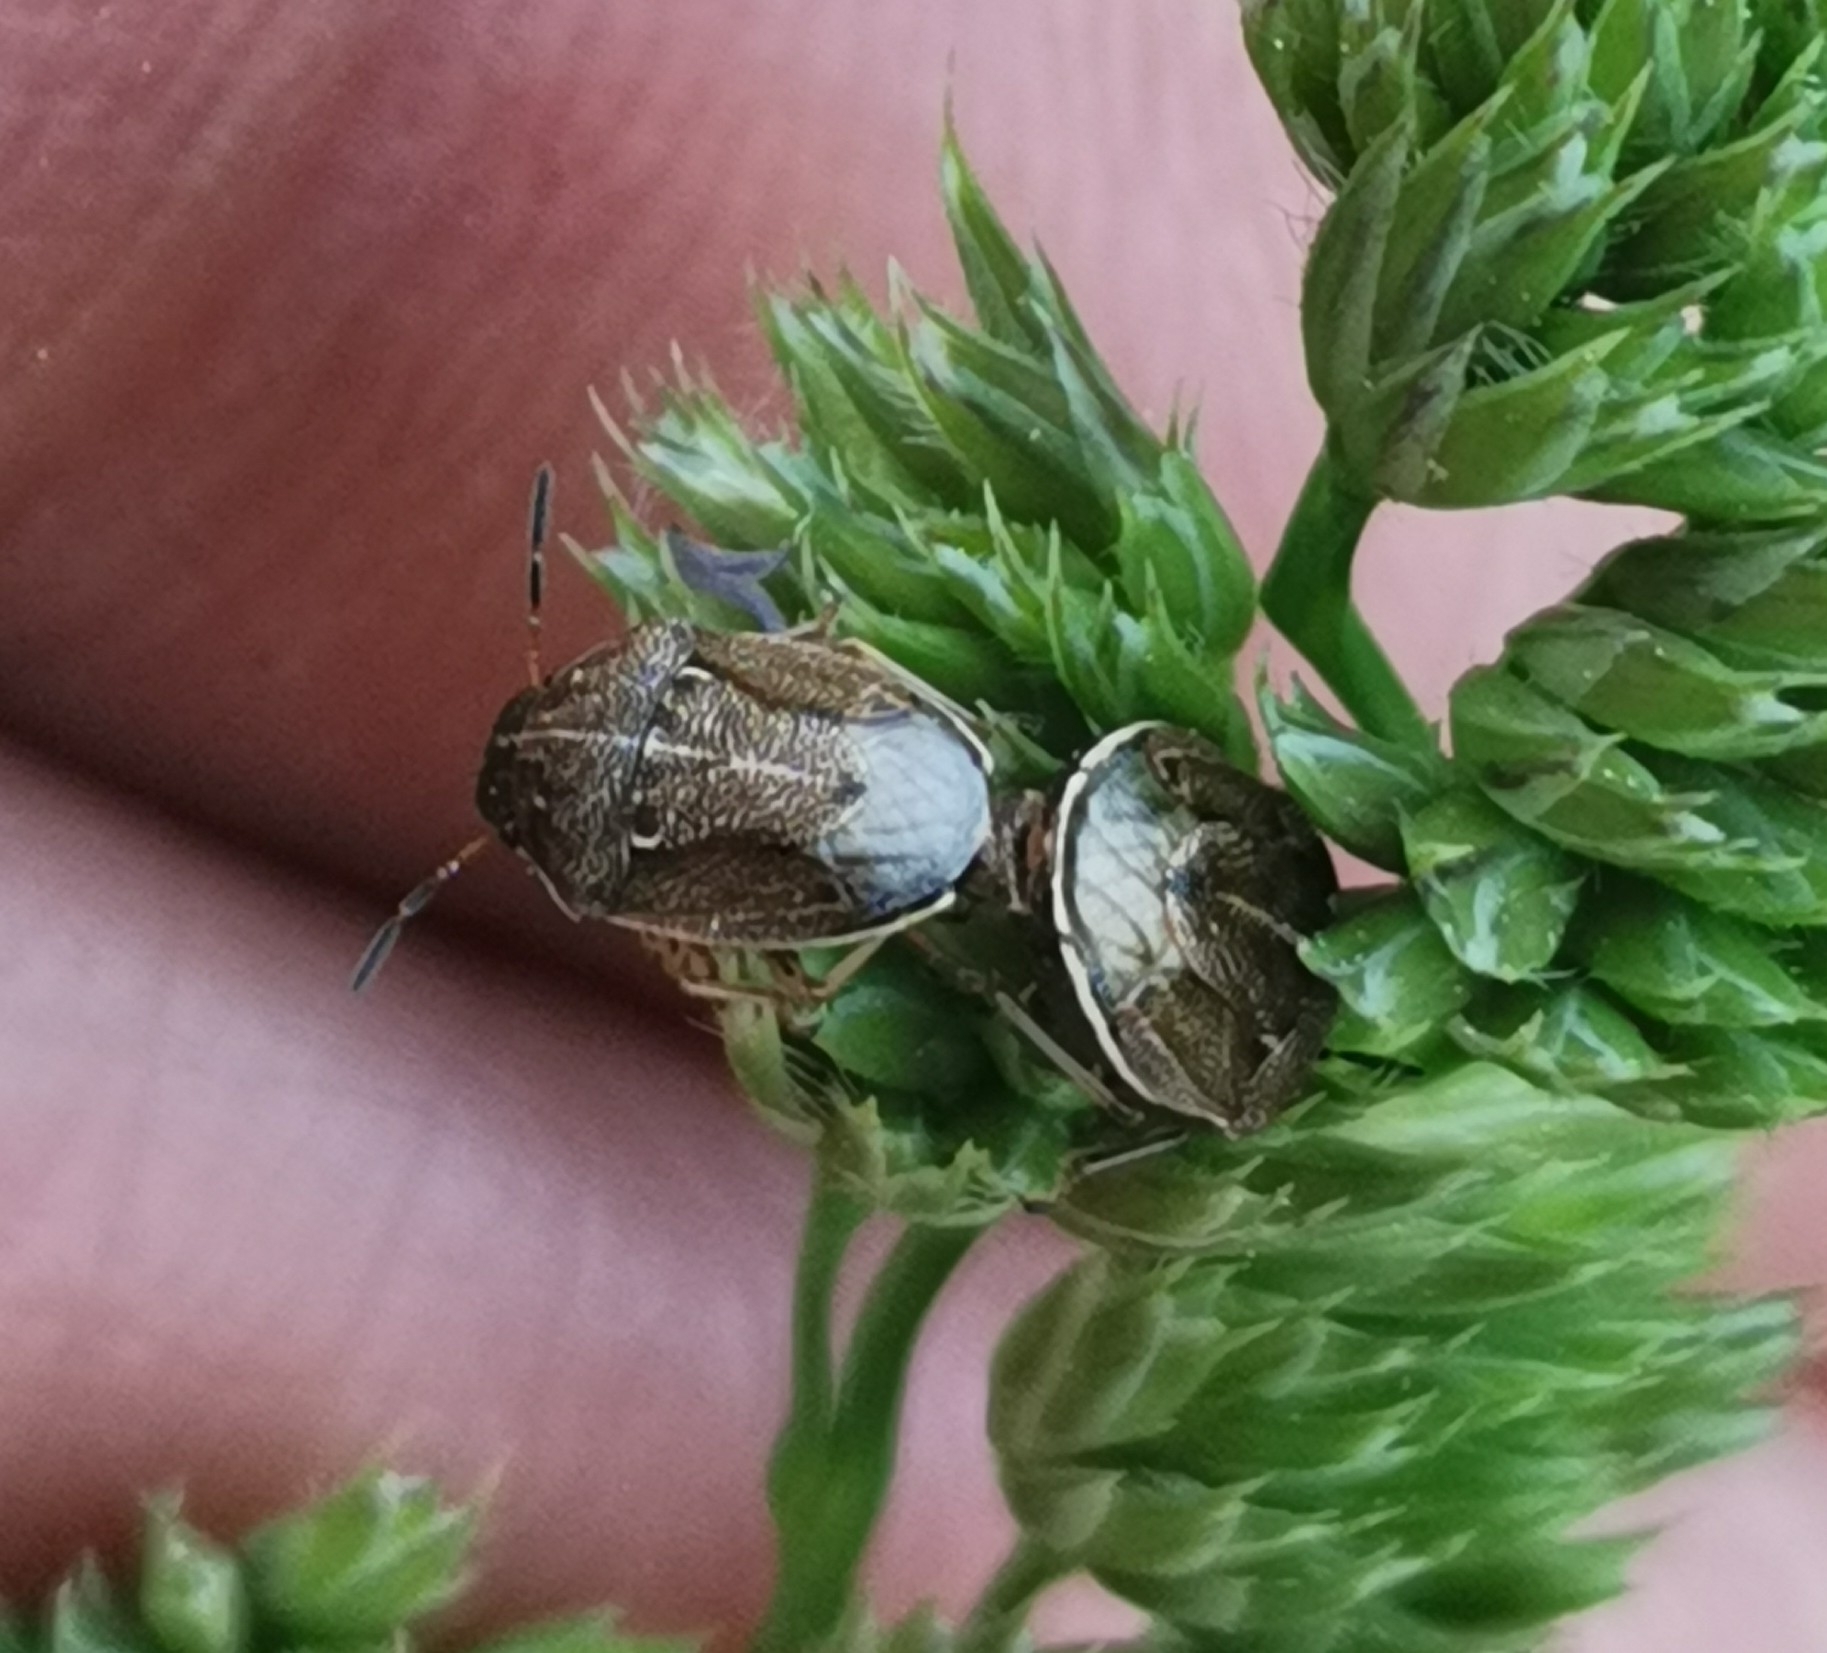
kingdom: Animalia
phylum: Arthropoda
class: Insecta
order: Hemiptera
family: Pentatomidae
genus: Neottiglossa
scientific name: Neottiglossa pusilla
